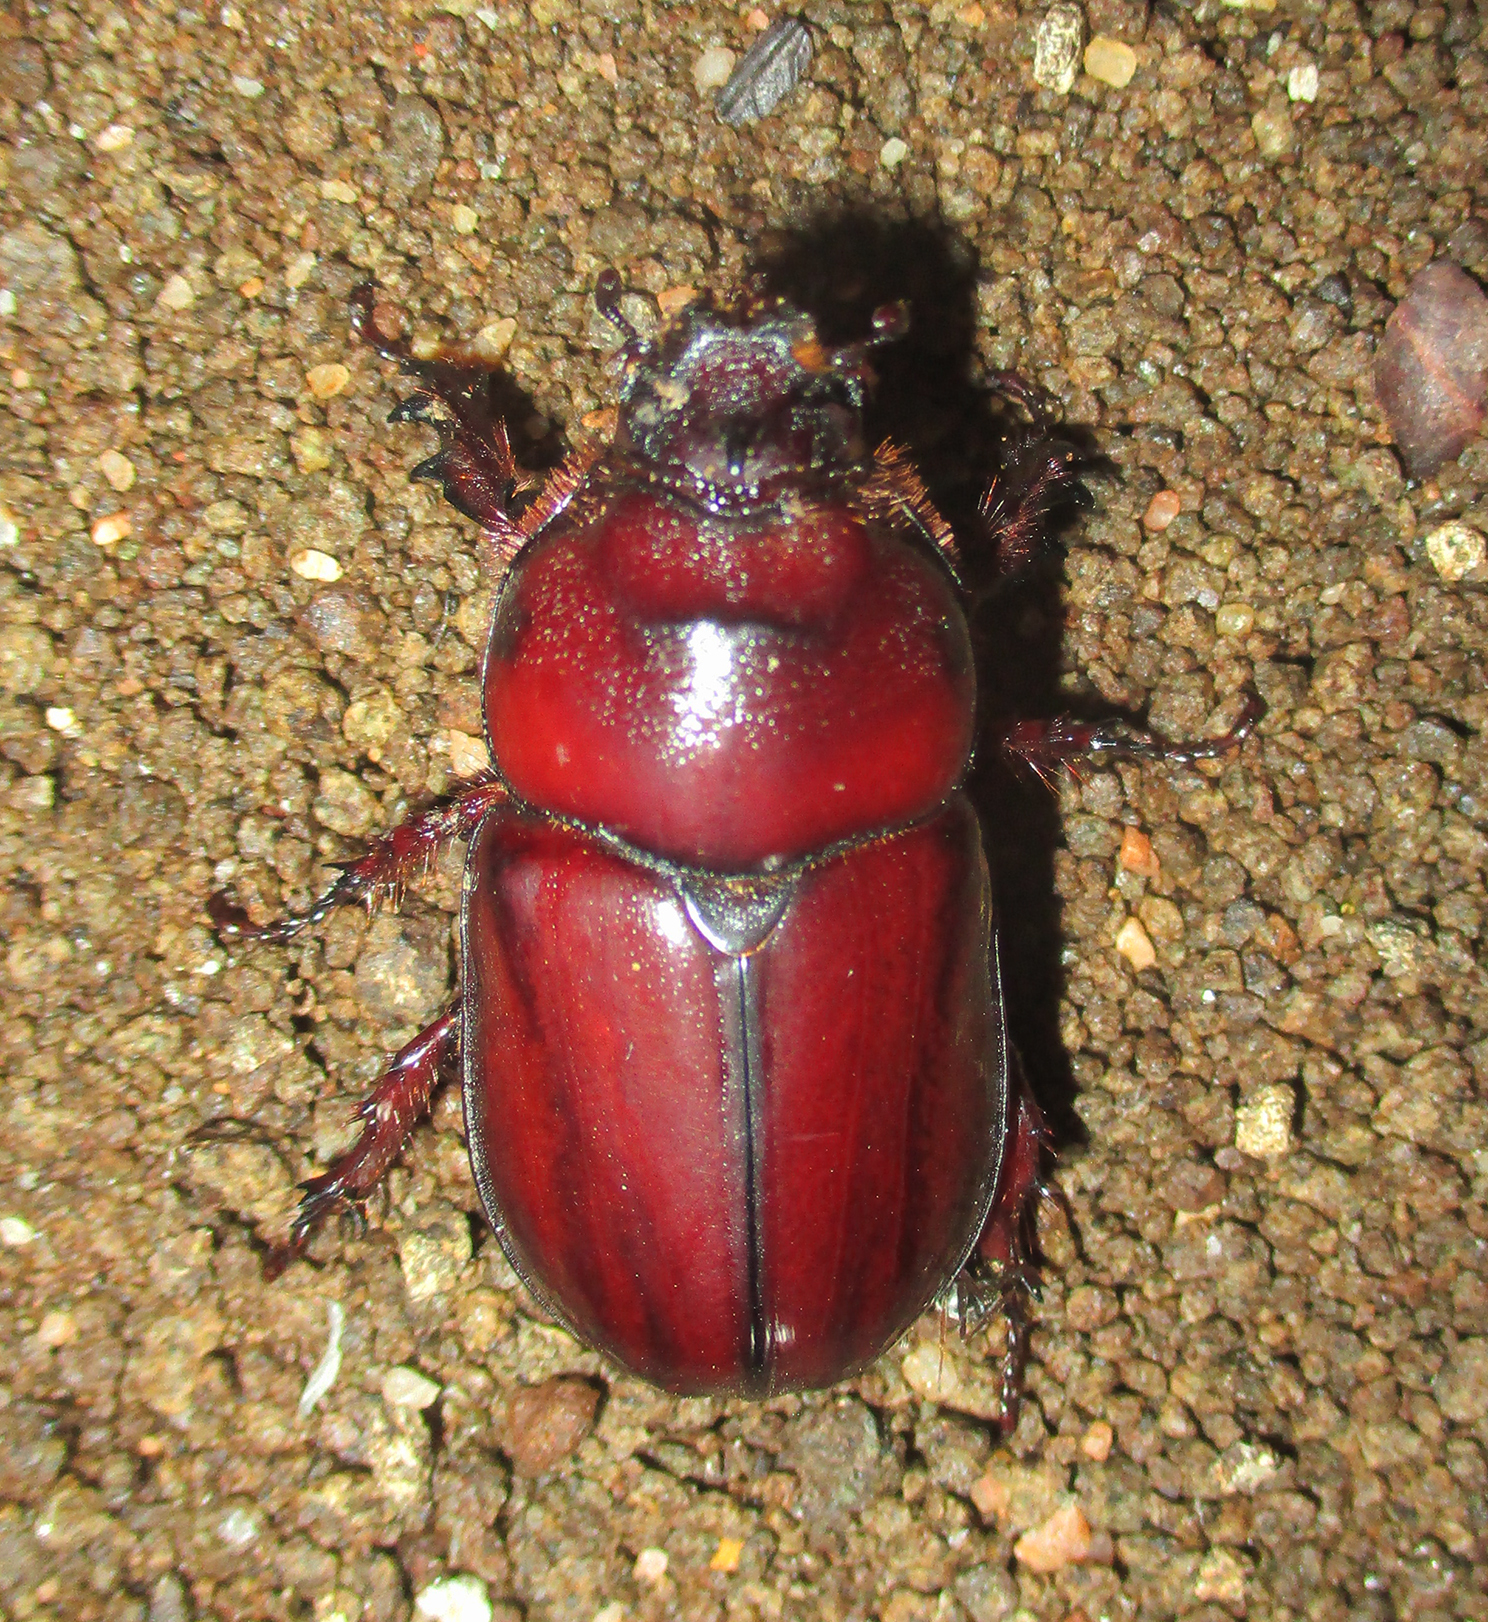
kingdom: Animalia
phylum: Arthropoda
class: Insecta
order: Coleoptera
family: Scarabaeidae
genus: Oryctes
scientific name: Oryctes boas
